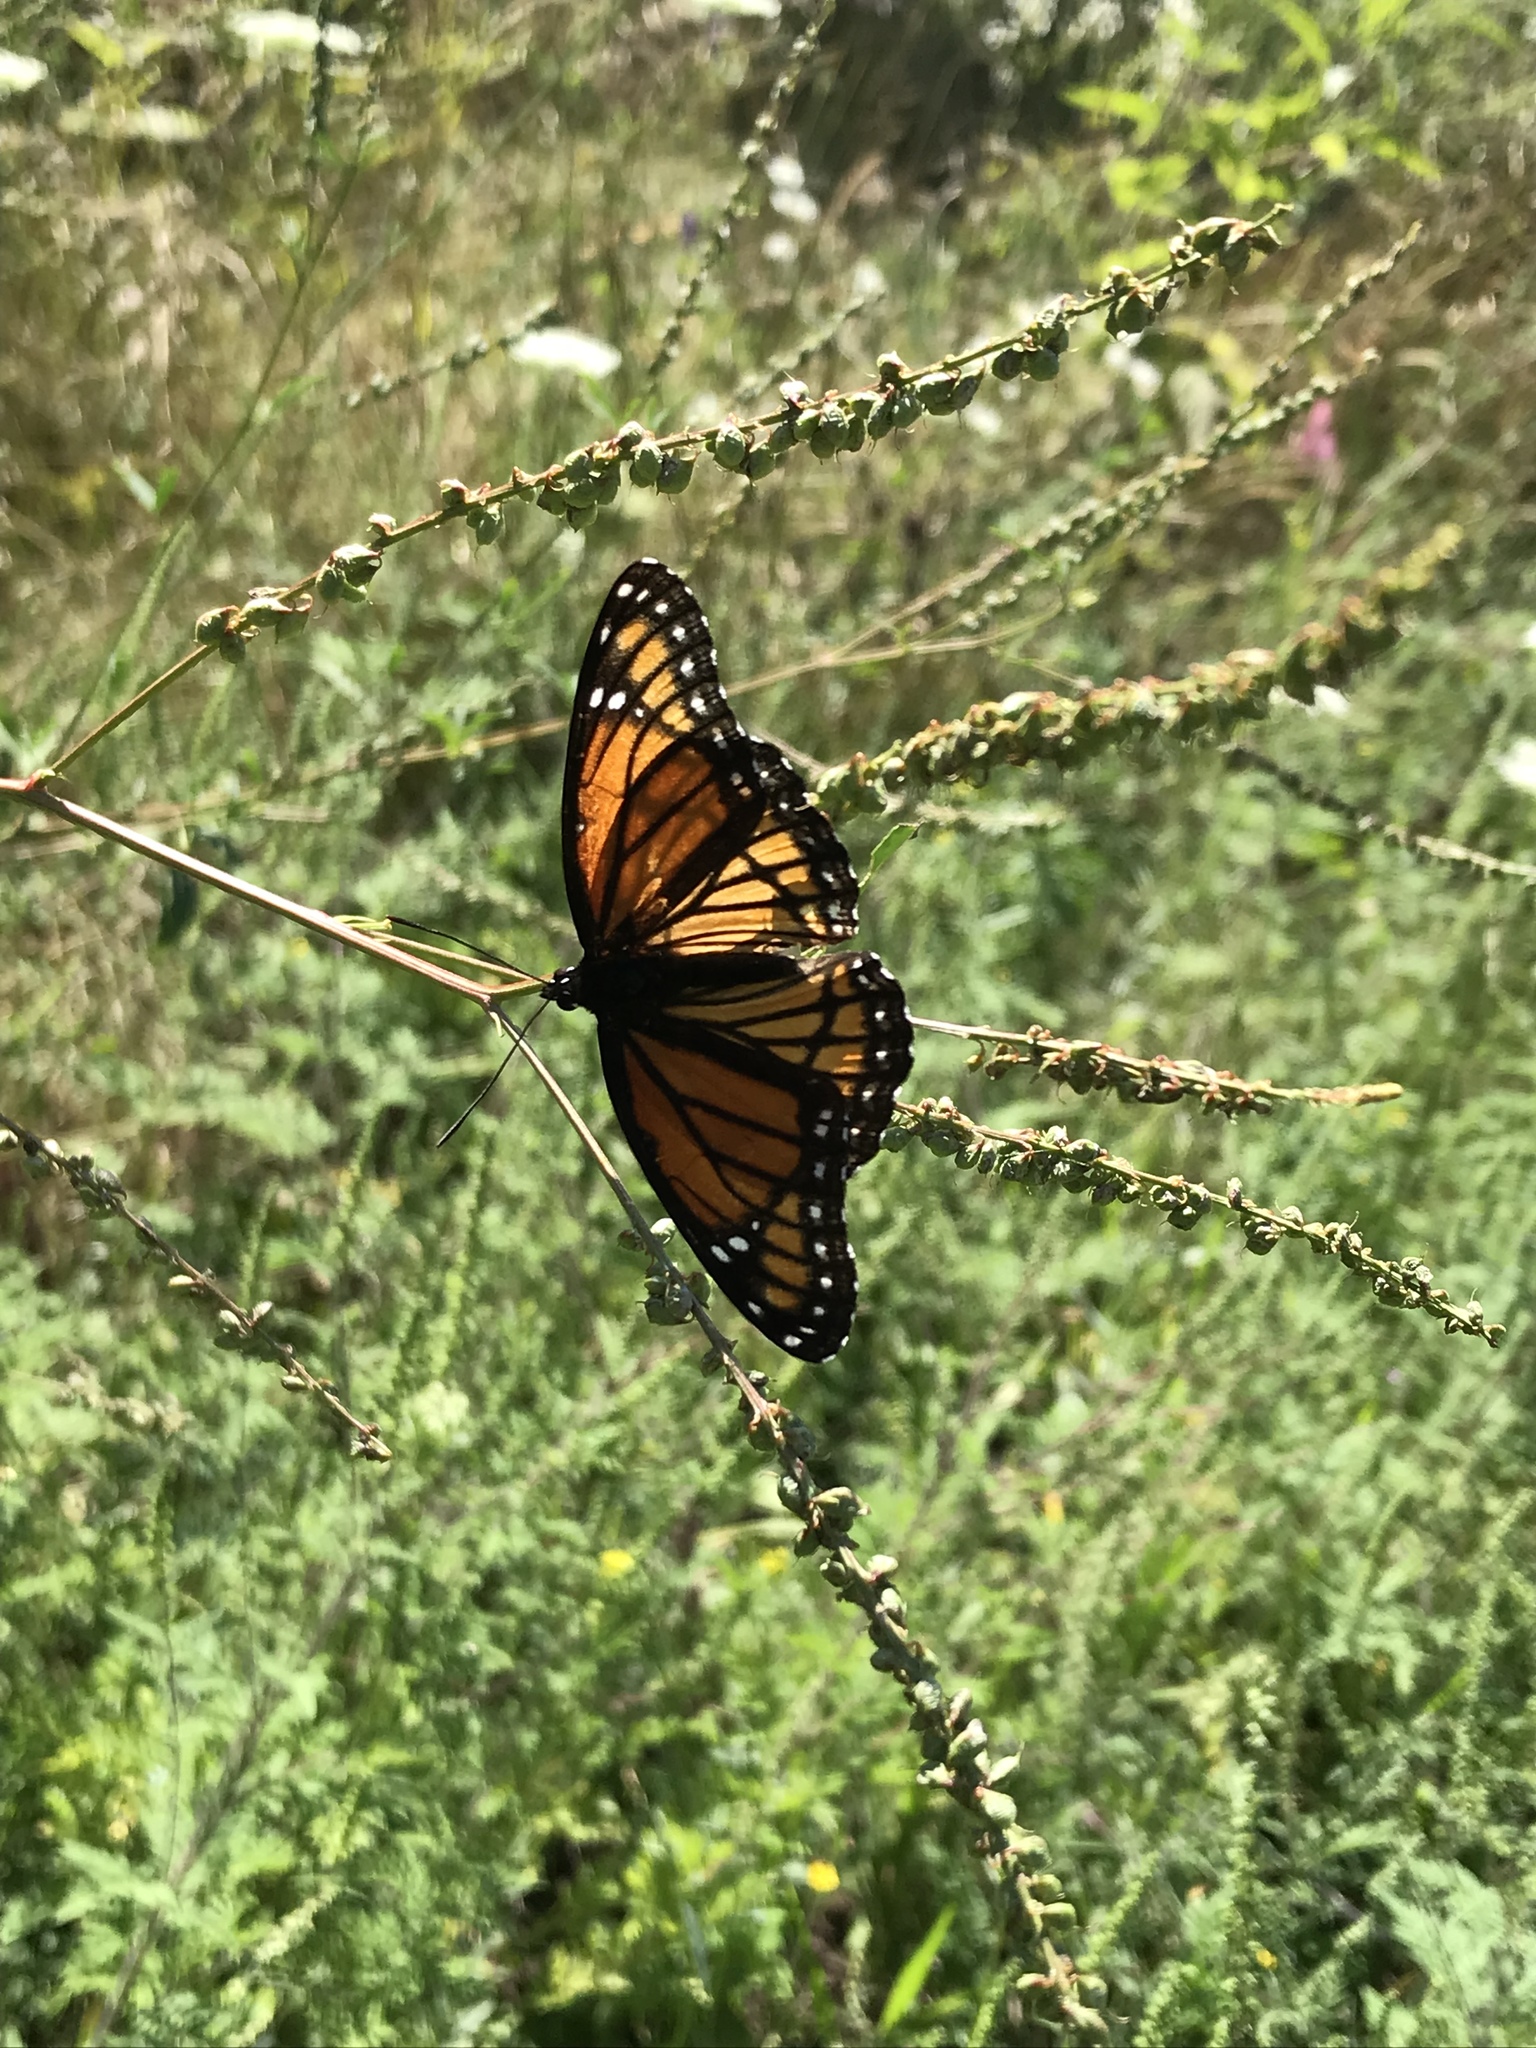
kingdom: Animalia
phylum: Arthropoda
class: Insecta
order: Lepidoptera
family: Nymphalidae
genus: Limenitis
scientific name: Limenitis archippus
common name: Viceroy
